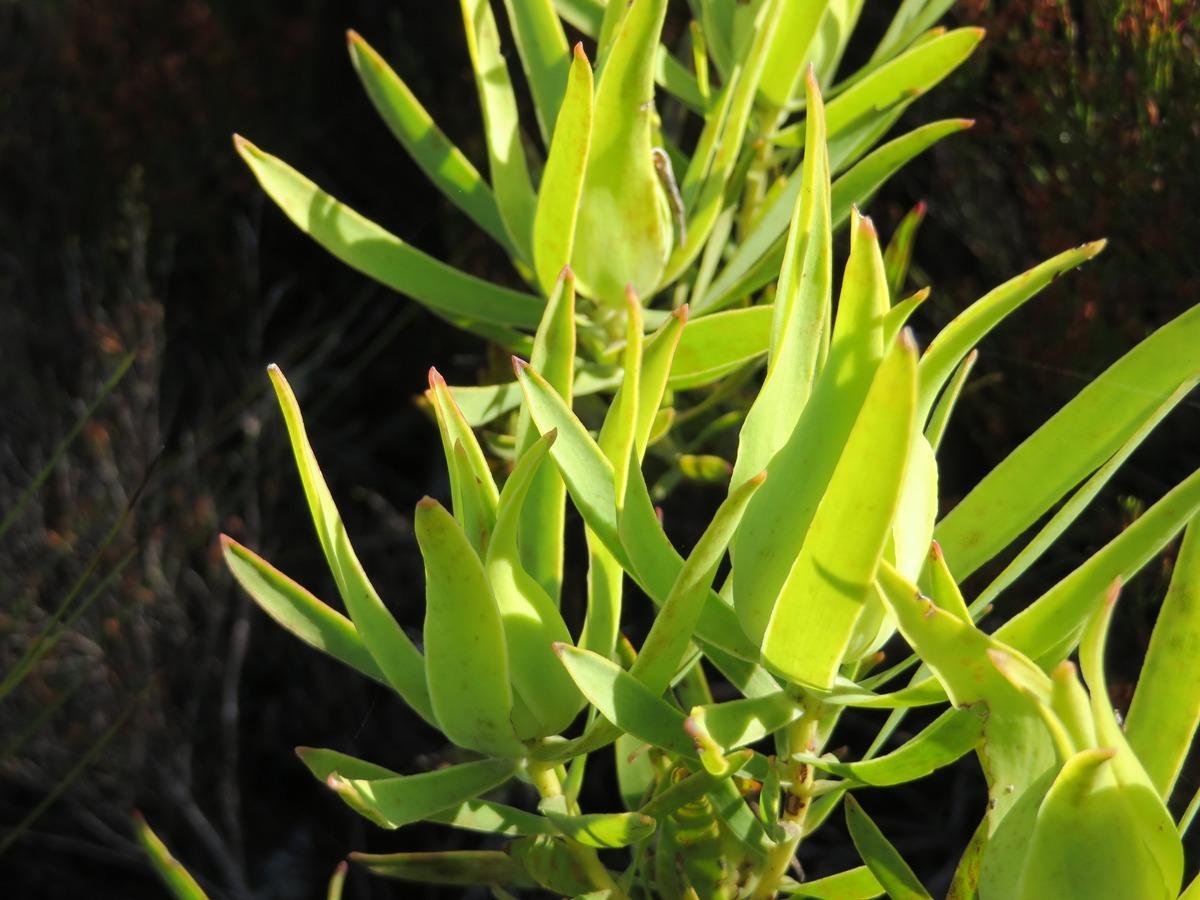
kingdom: Plantae
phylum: Tracheophyta
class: Magnoliopsida
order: Proteales
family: Proteaceae
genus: Leucadendron
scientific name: Leucadendron salignum
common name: Common sunshine conebush
